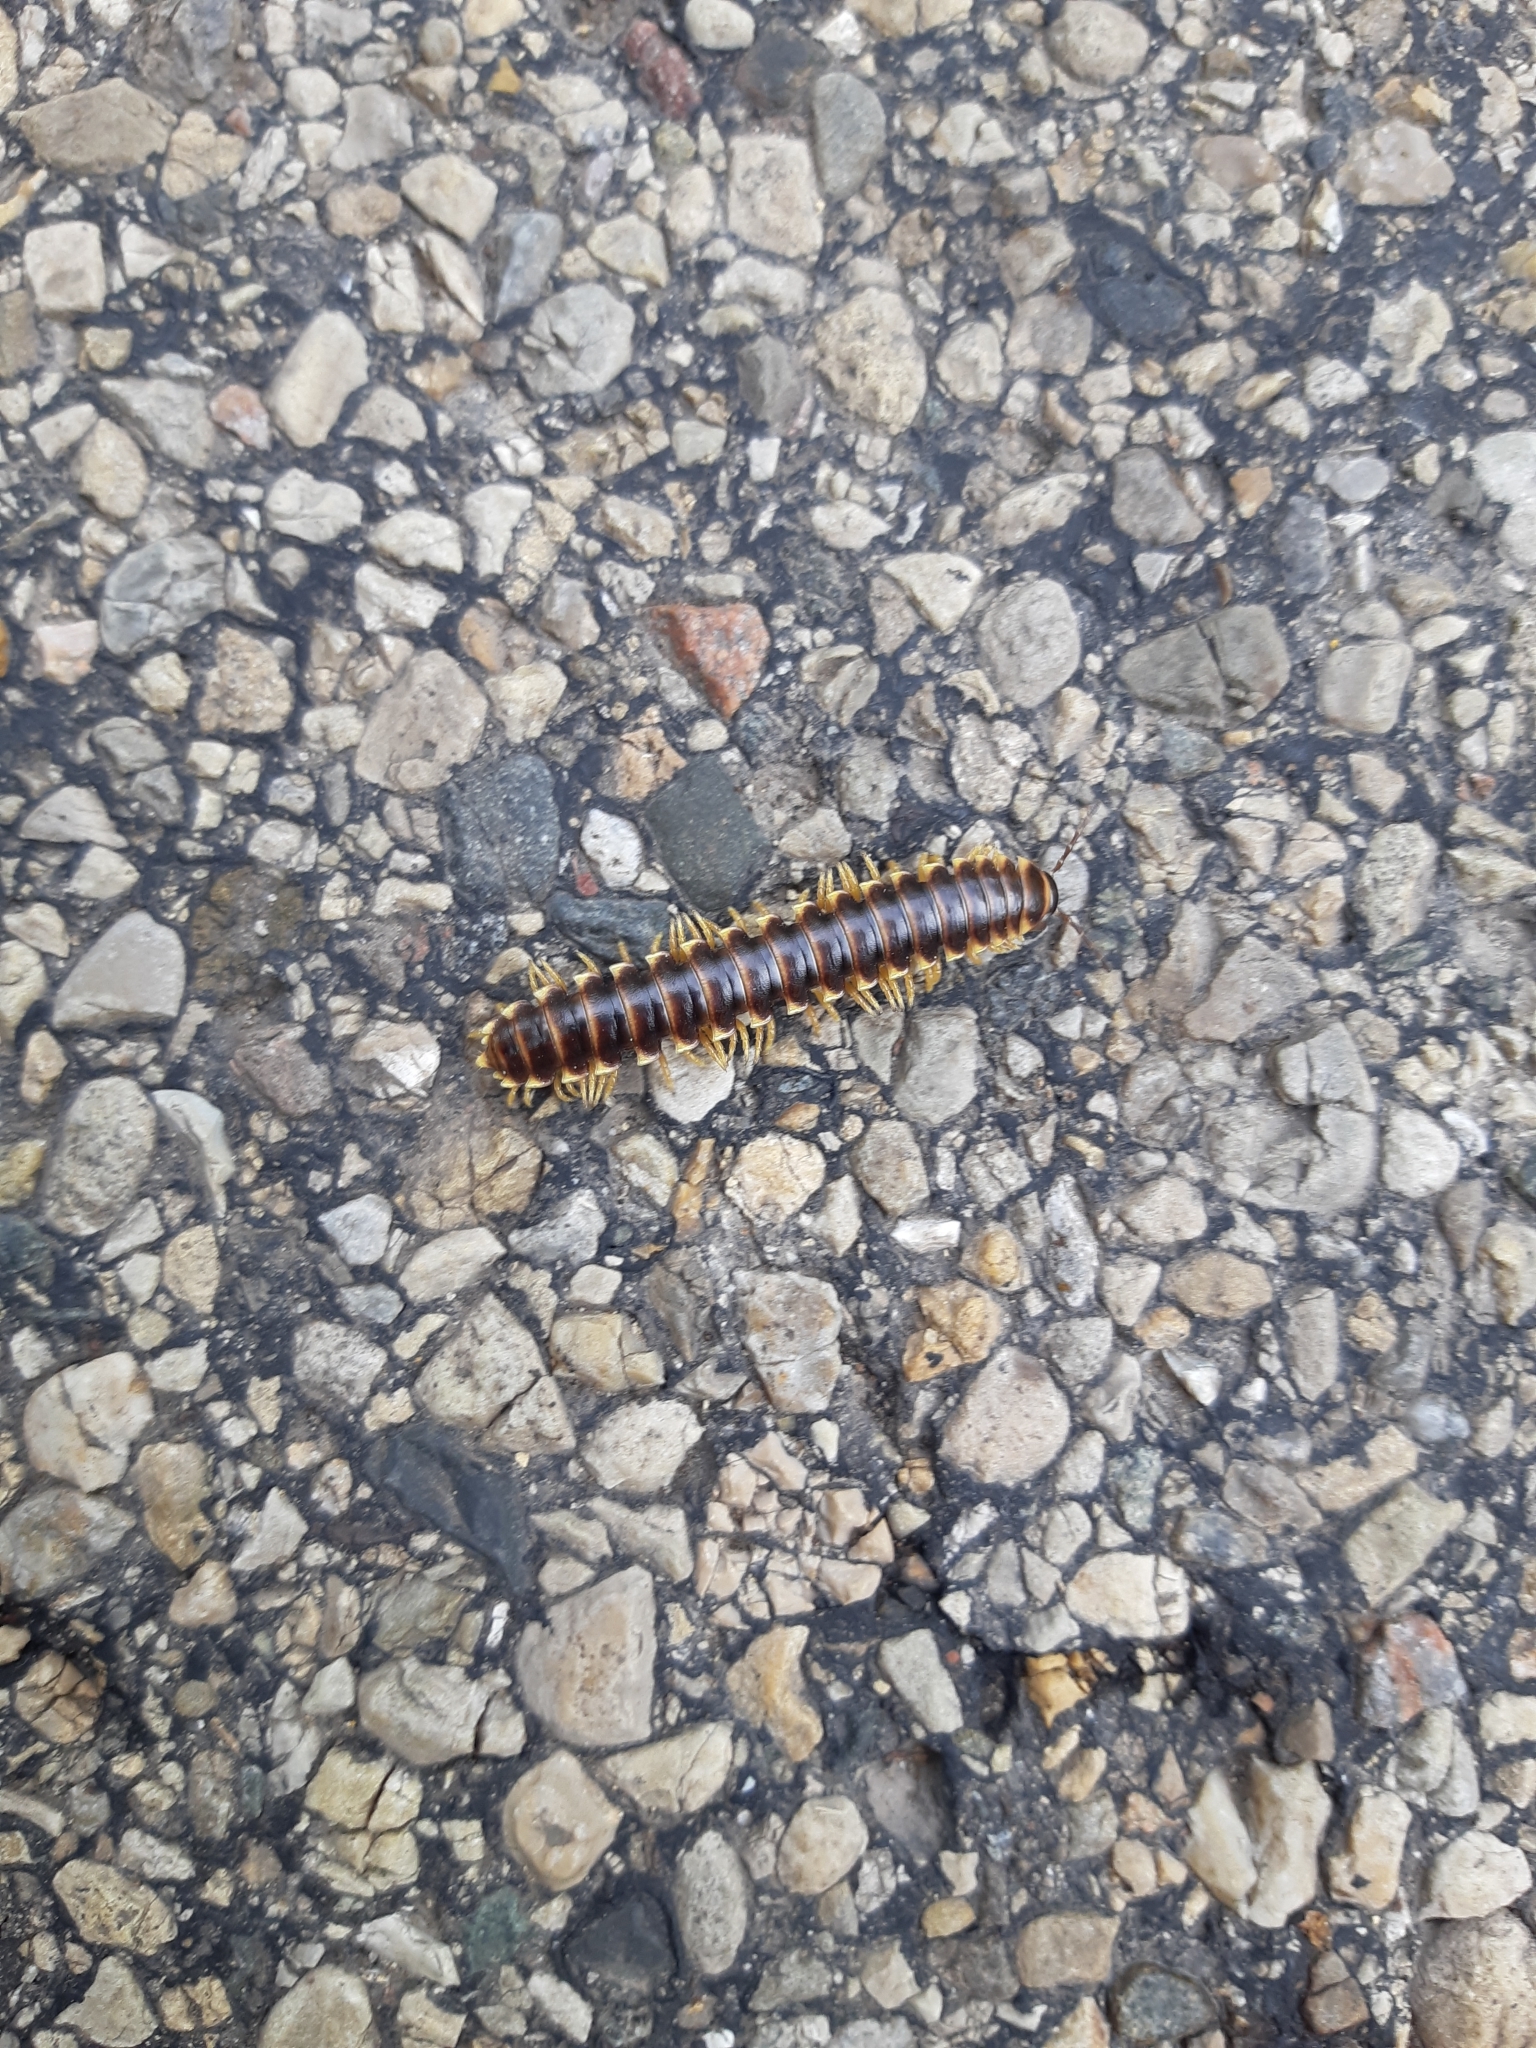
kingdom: Animalia
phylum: Arthropoda
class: Diplopoda
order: Polydesmida
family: Xystodesmidae
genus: Pleuroloma
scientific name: Pleuroloma flavipes
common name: Yellow-legged pleuroloma
